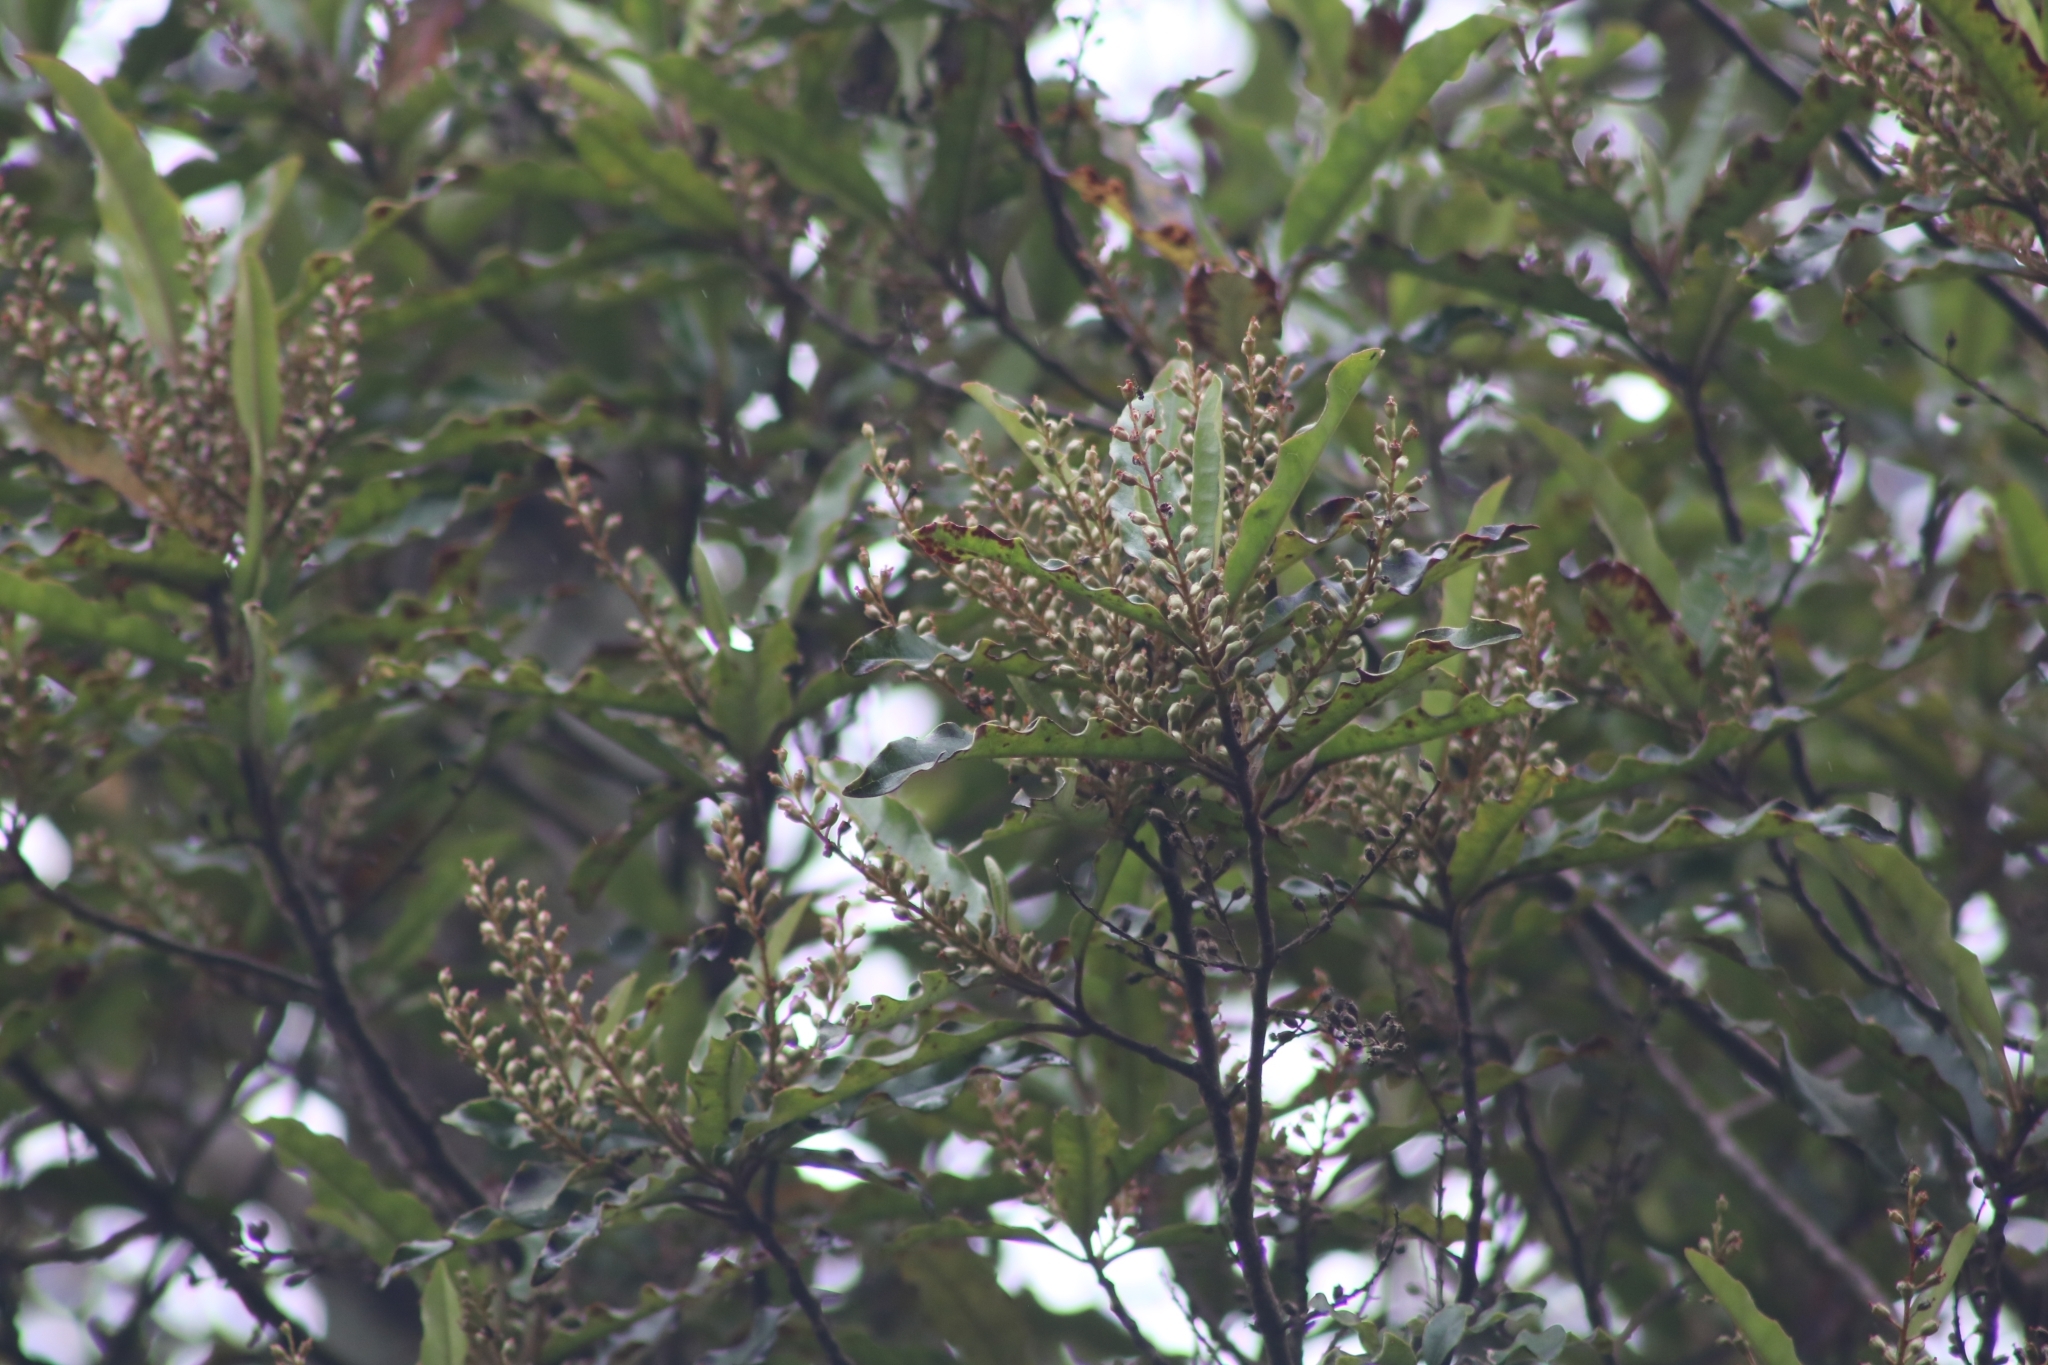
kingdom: Plantae
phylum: Tracheophyta
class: Magnoliopsida
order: Paracryphiales
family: Paracryphiaceae
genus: Quintinia
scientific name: Quintinia serrata
